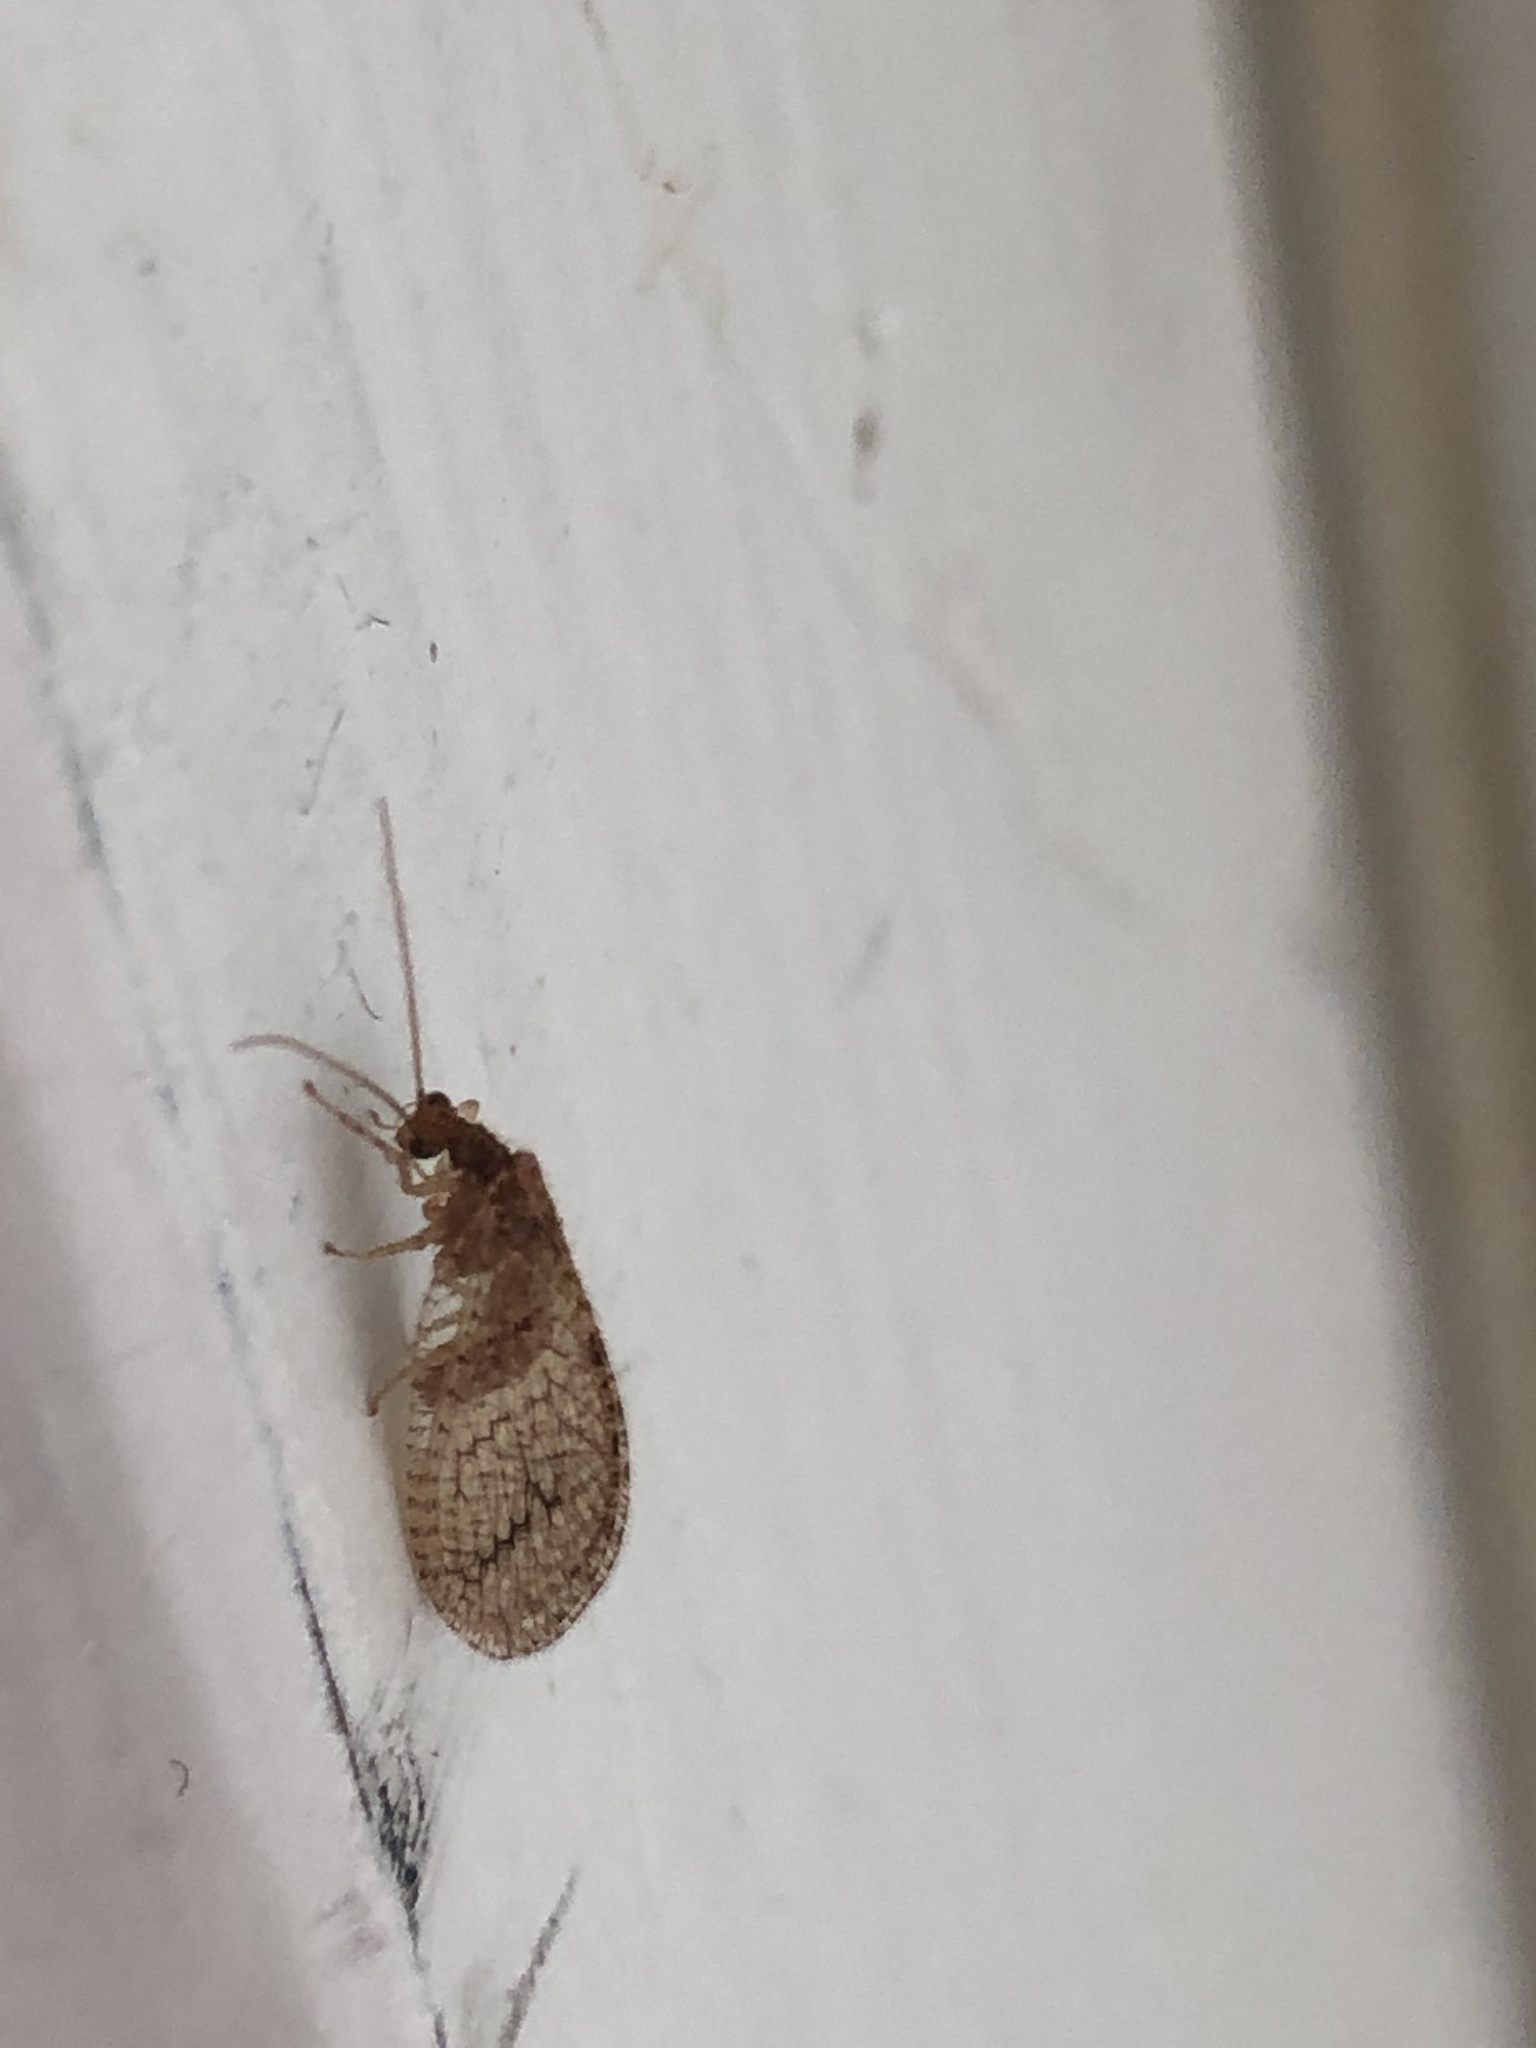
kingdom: Animalia
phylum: Arthropoda
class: Insecta
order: Neuroptera
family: Hemerobiidae
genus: Micromus
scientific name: Micromus posticus
